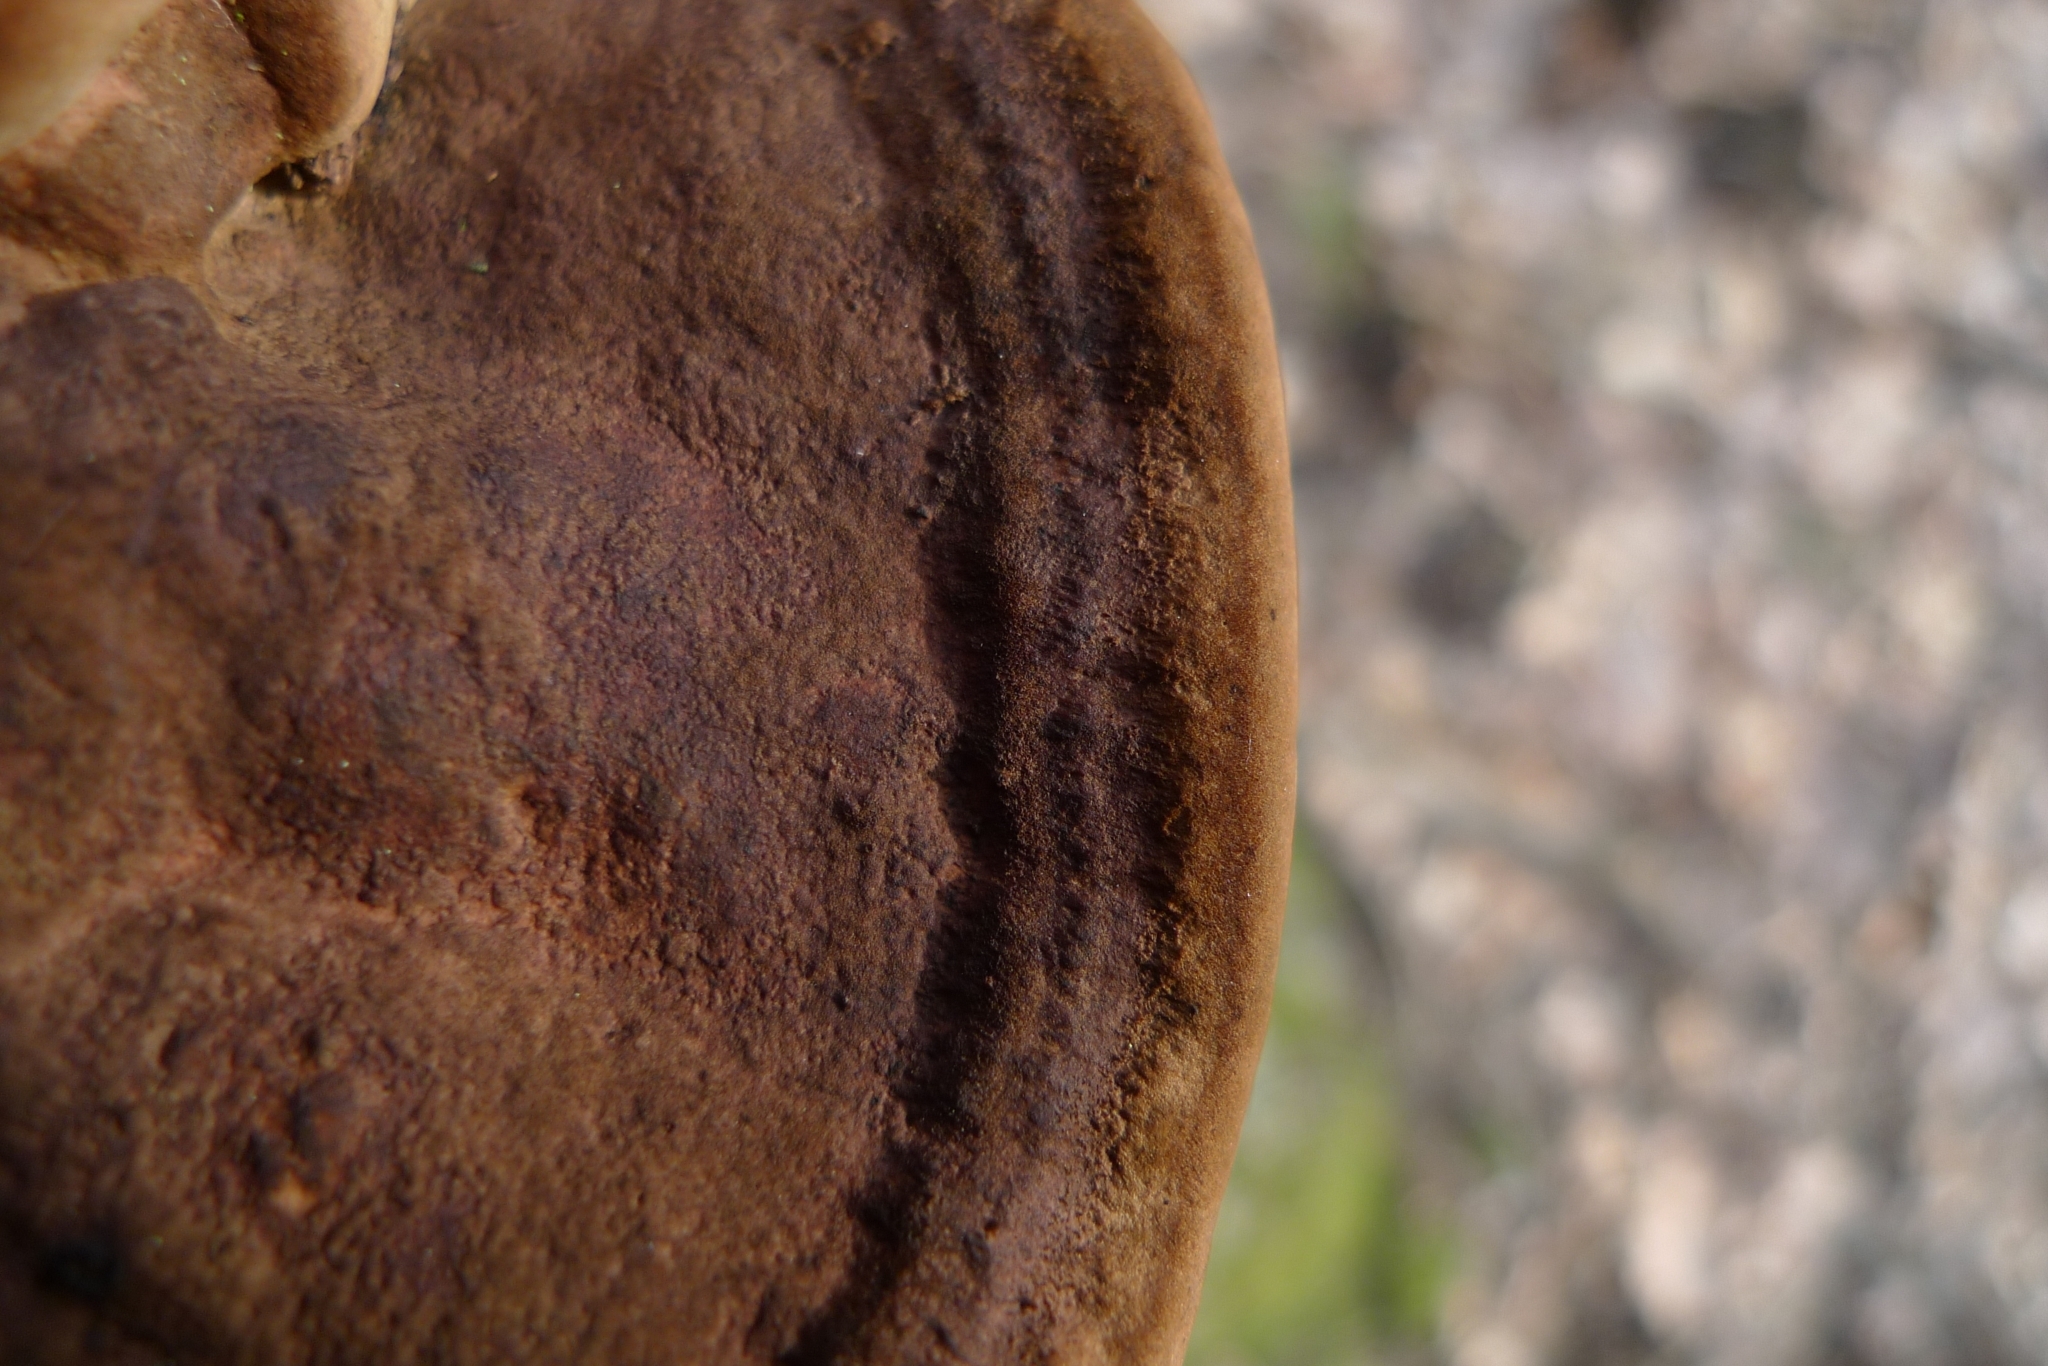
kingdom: Fungi
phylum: Basidiomycota
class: Agaricomycetes
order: Polyporales
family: Fomitopsidaceae
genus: Fomitopsis
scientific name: Fomitopsis
